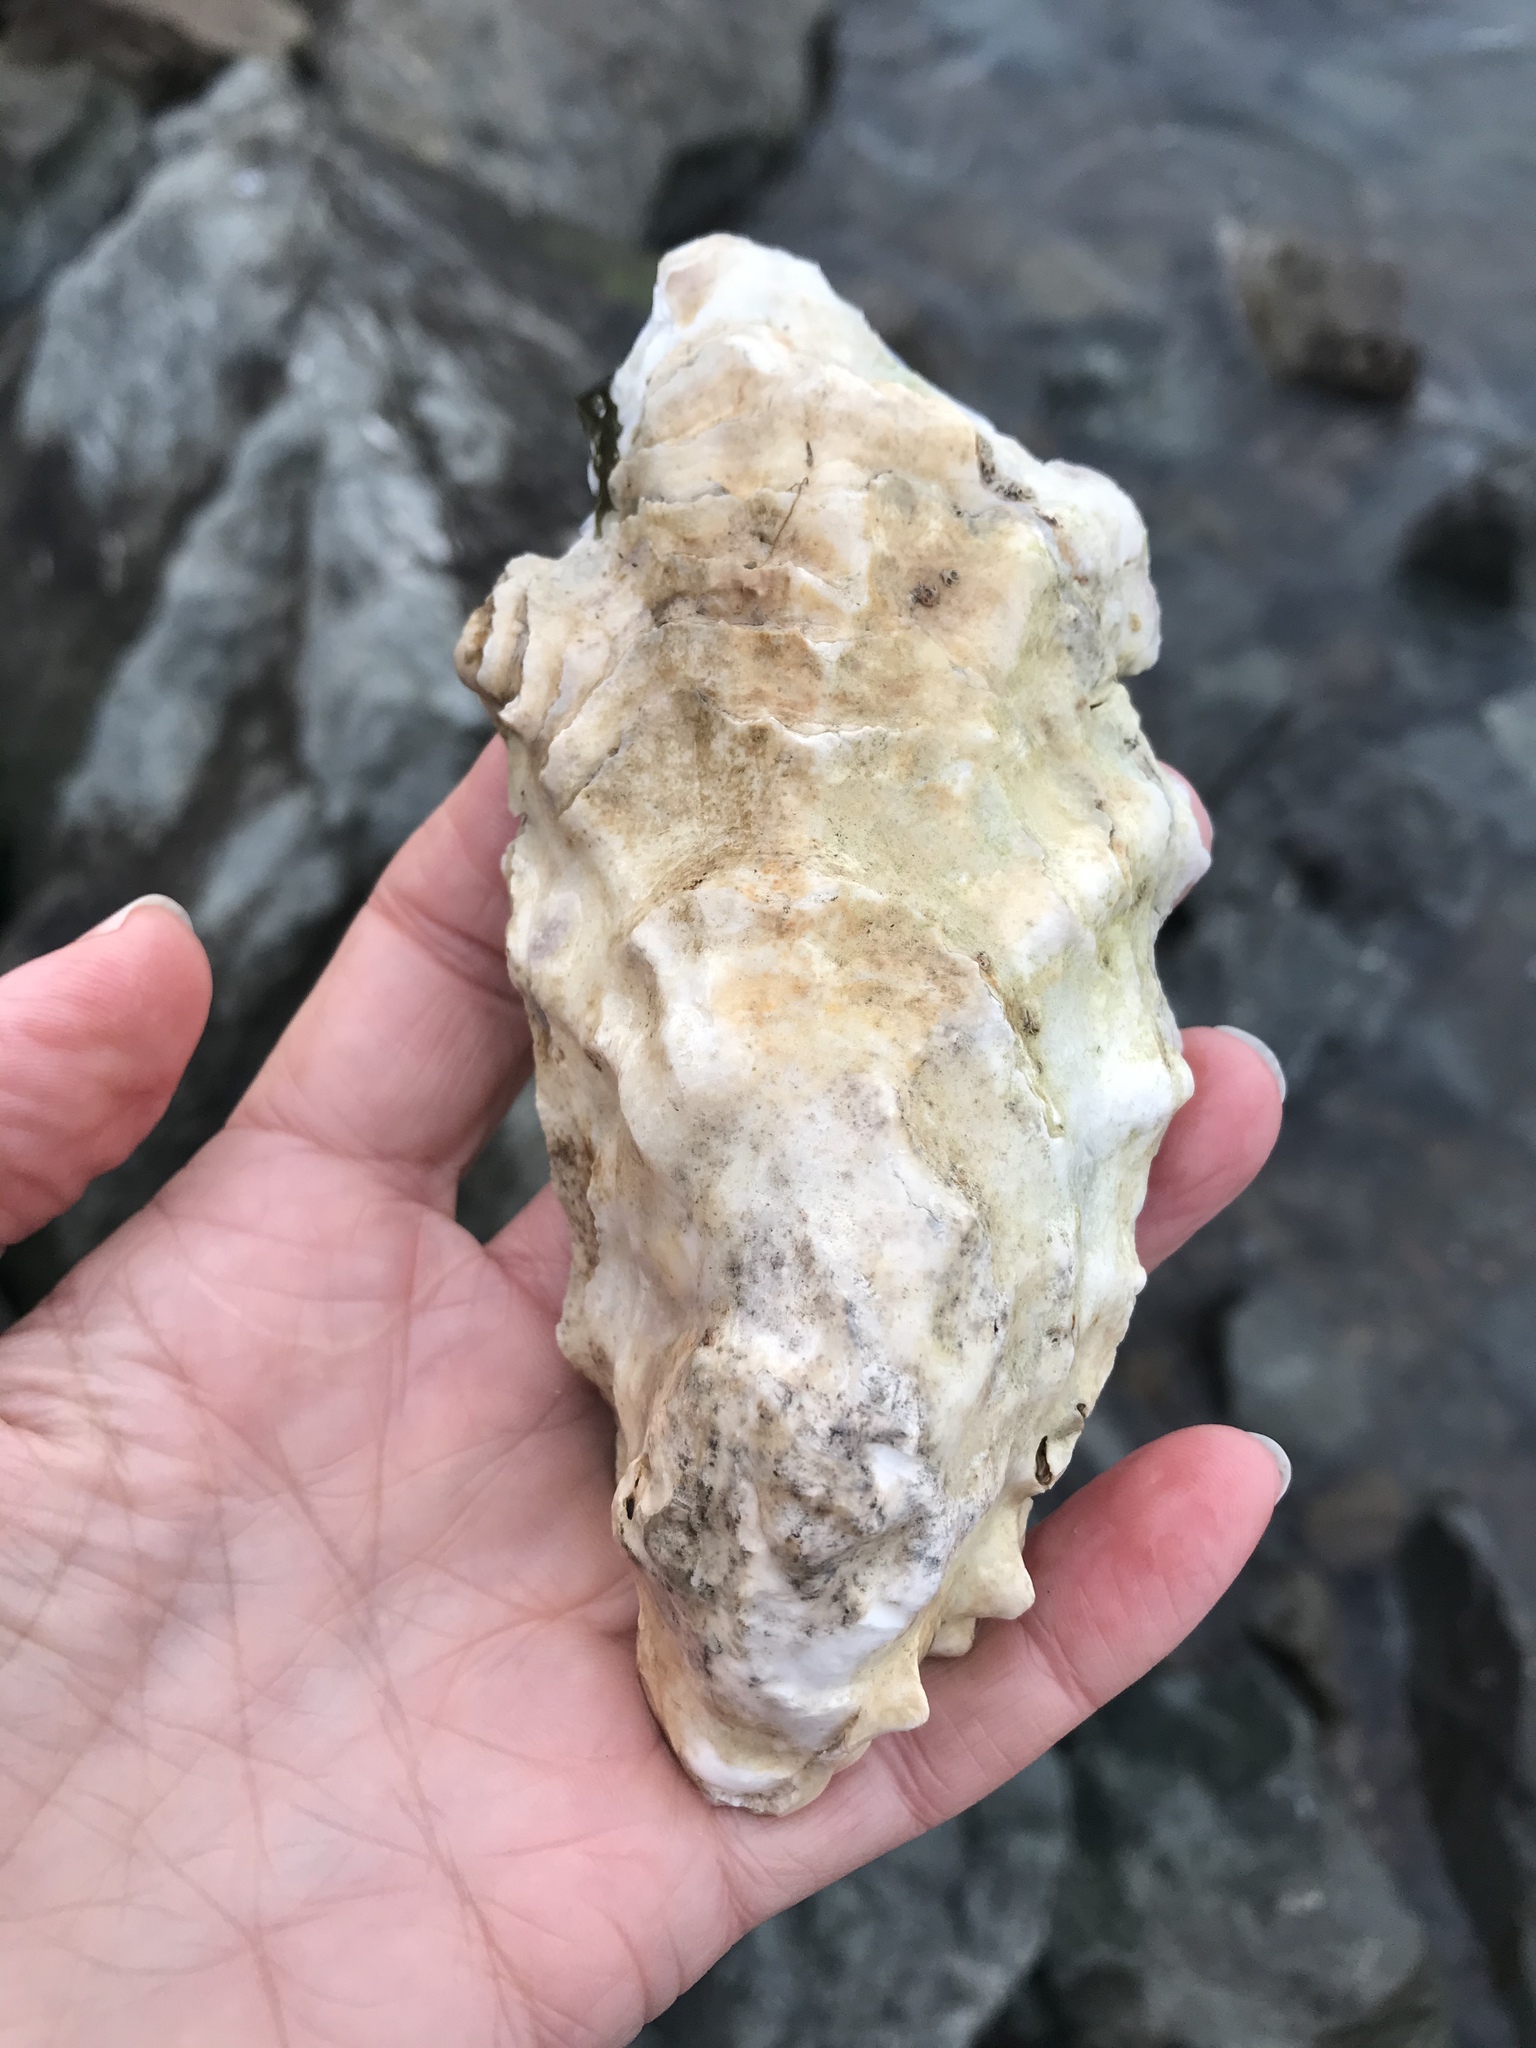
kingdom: Animalia
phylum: Mollusca
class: Bivalvia
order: Ostreida
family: Ostreidae
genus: Magallana
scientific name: Magallana gigas
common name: Pacific oyster
